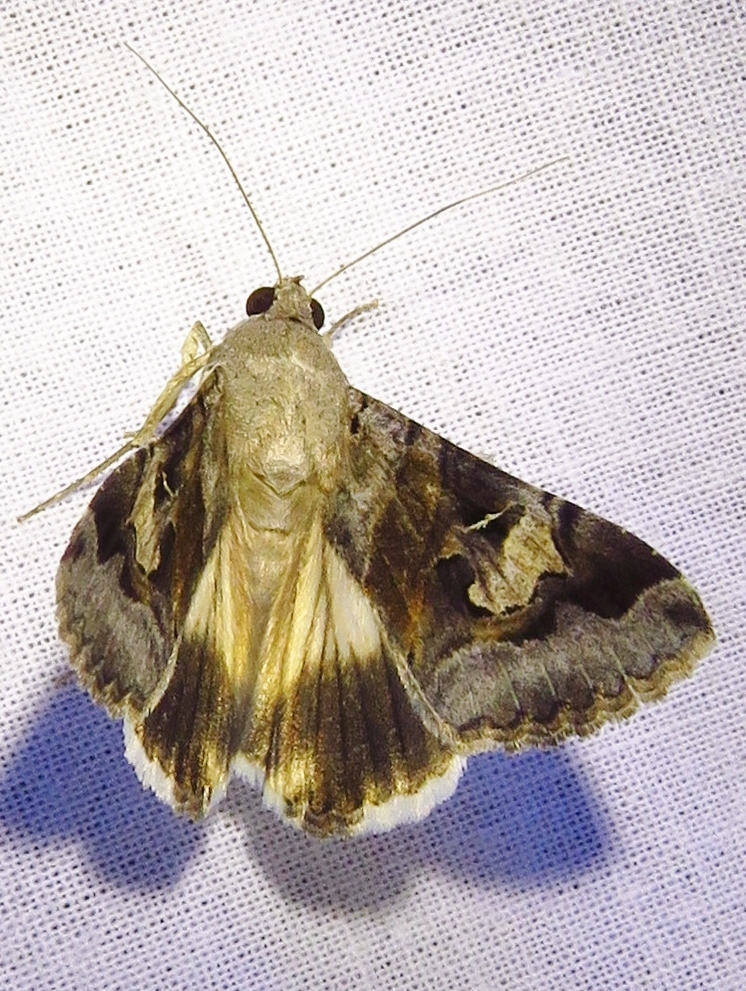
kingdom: Animalia
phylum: Arthropoda
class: Insecta
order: Lepidoptera
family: Erebidae
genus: Melipotis
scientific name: Melipotis indomita
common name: Moth
